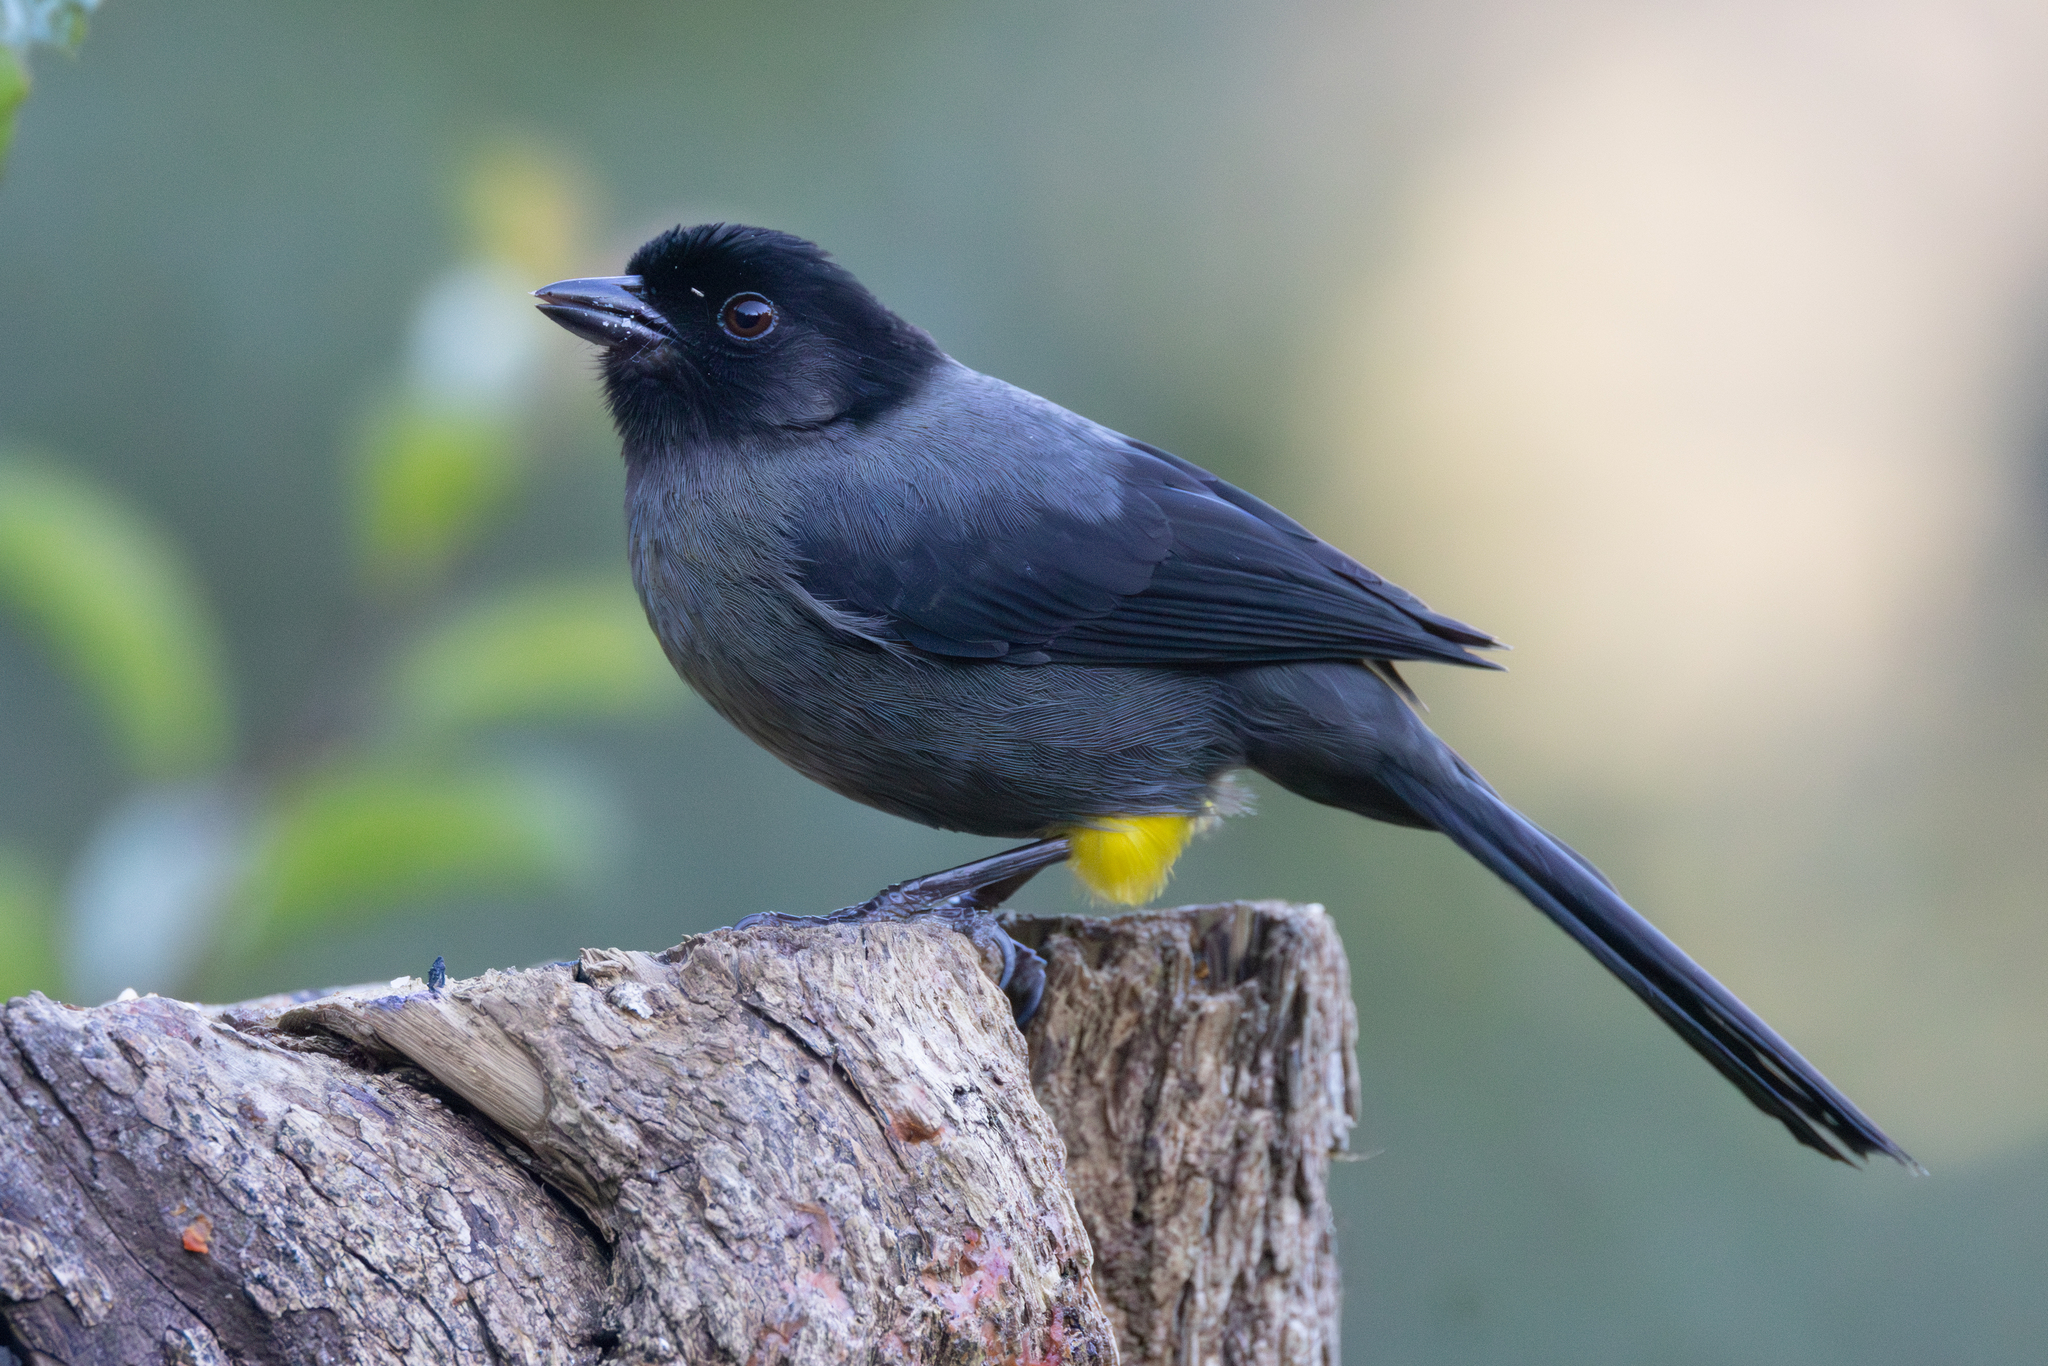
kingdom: Animalia
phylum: Chordata
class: Aves
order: Passeriformes
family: Passerellidae
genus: Atlapetes
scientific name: Atlapetes tibialis
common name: Yellow-thighed brushfinch
